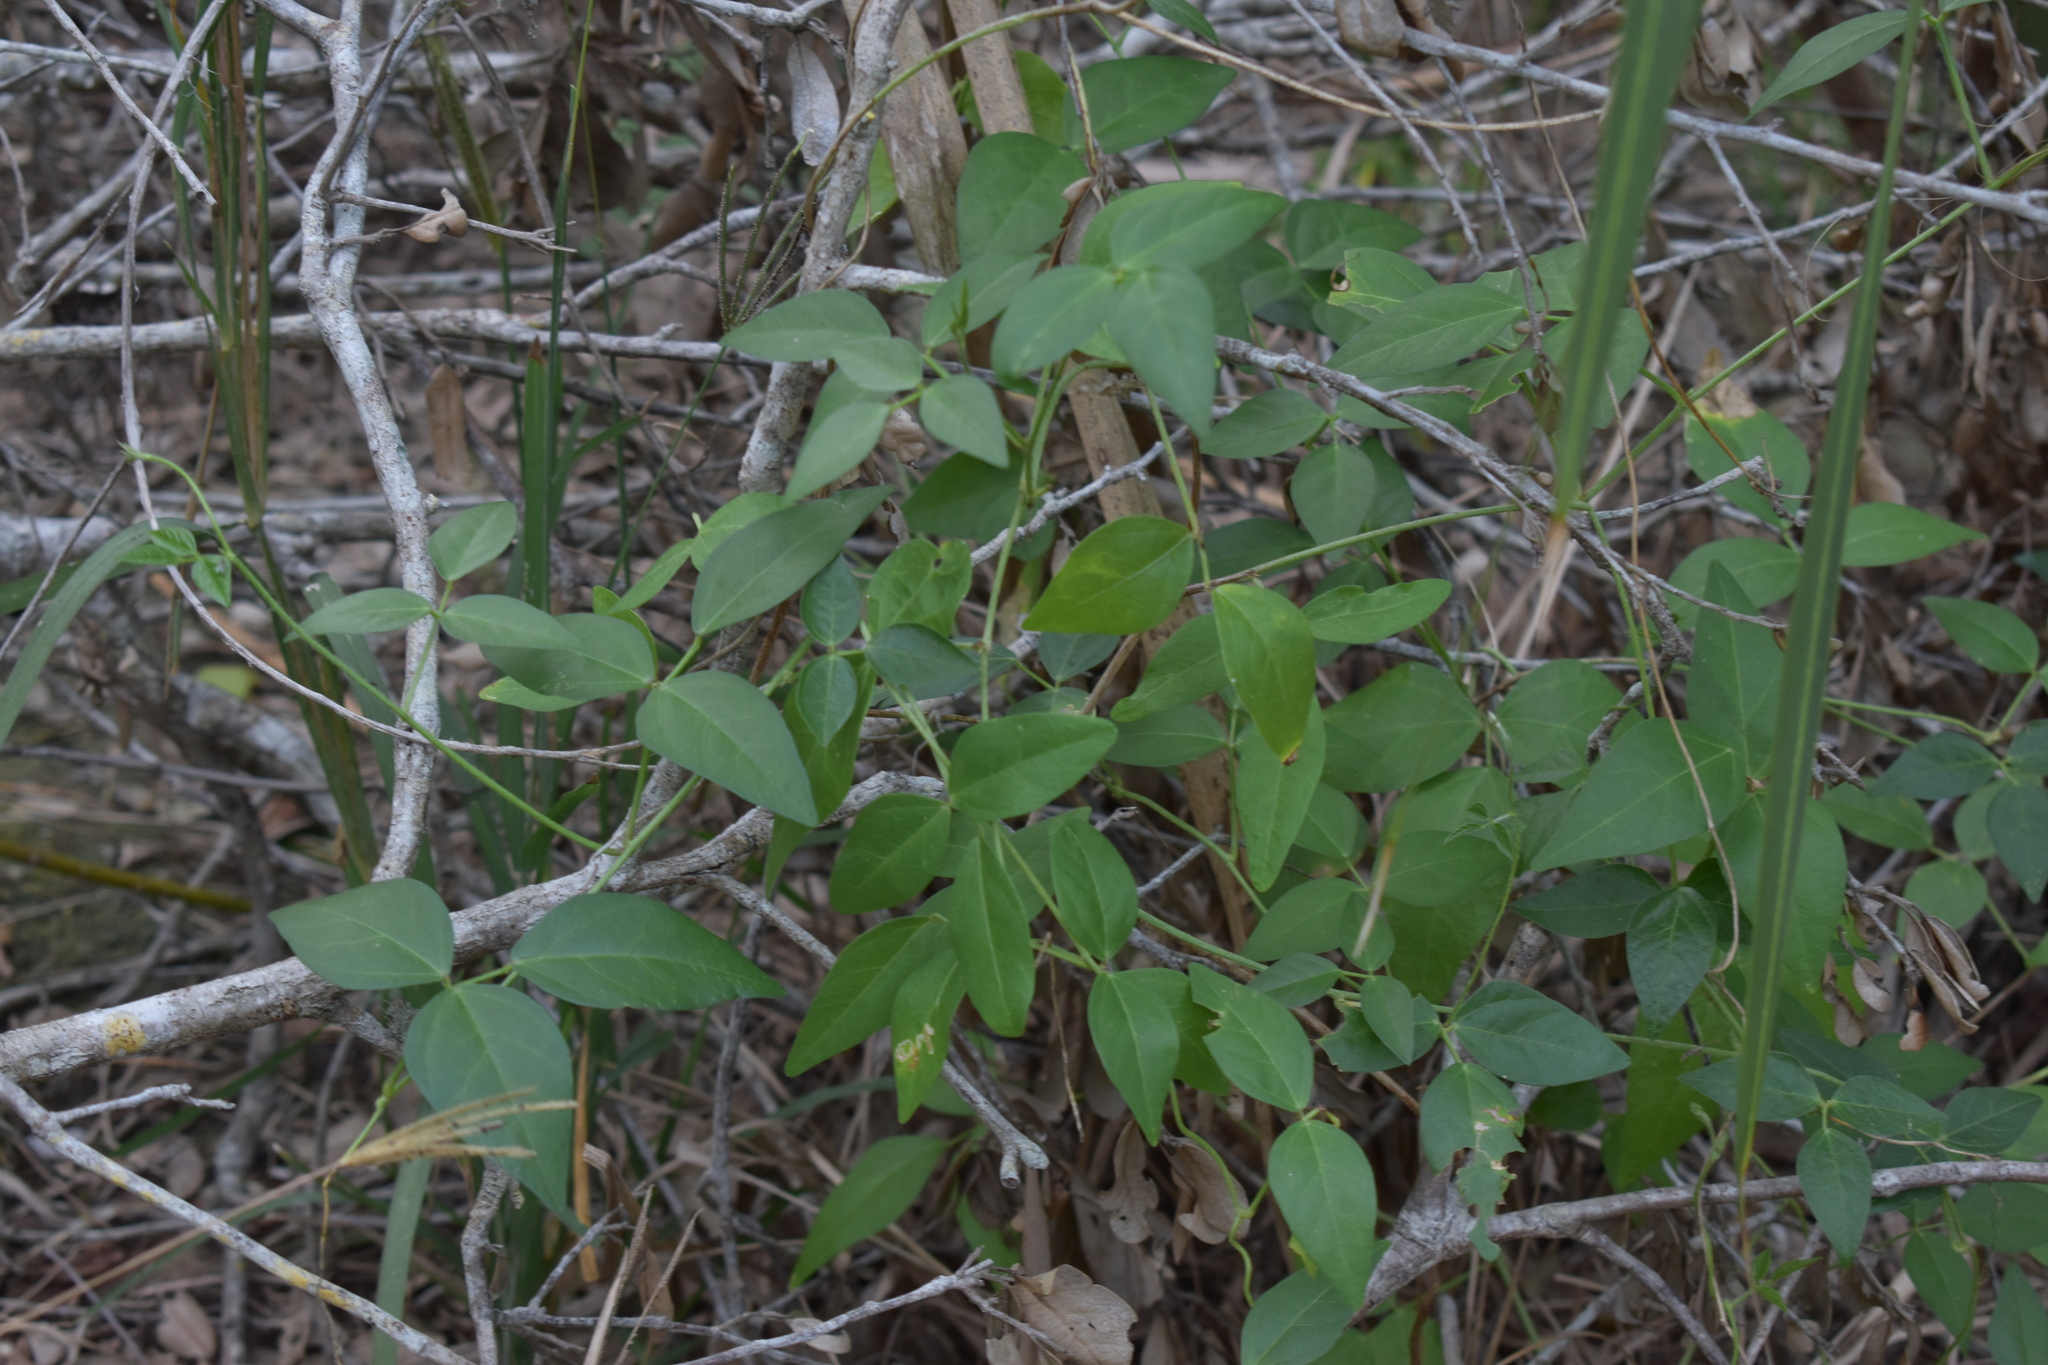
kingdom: Plantae
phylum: Tracheophyta
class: Magnoliopsida
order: Fabales
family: Fabaceae
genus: Vigna
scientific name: Vigna luteola
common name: Hairypod cowpea
